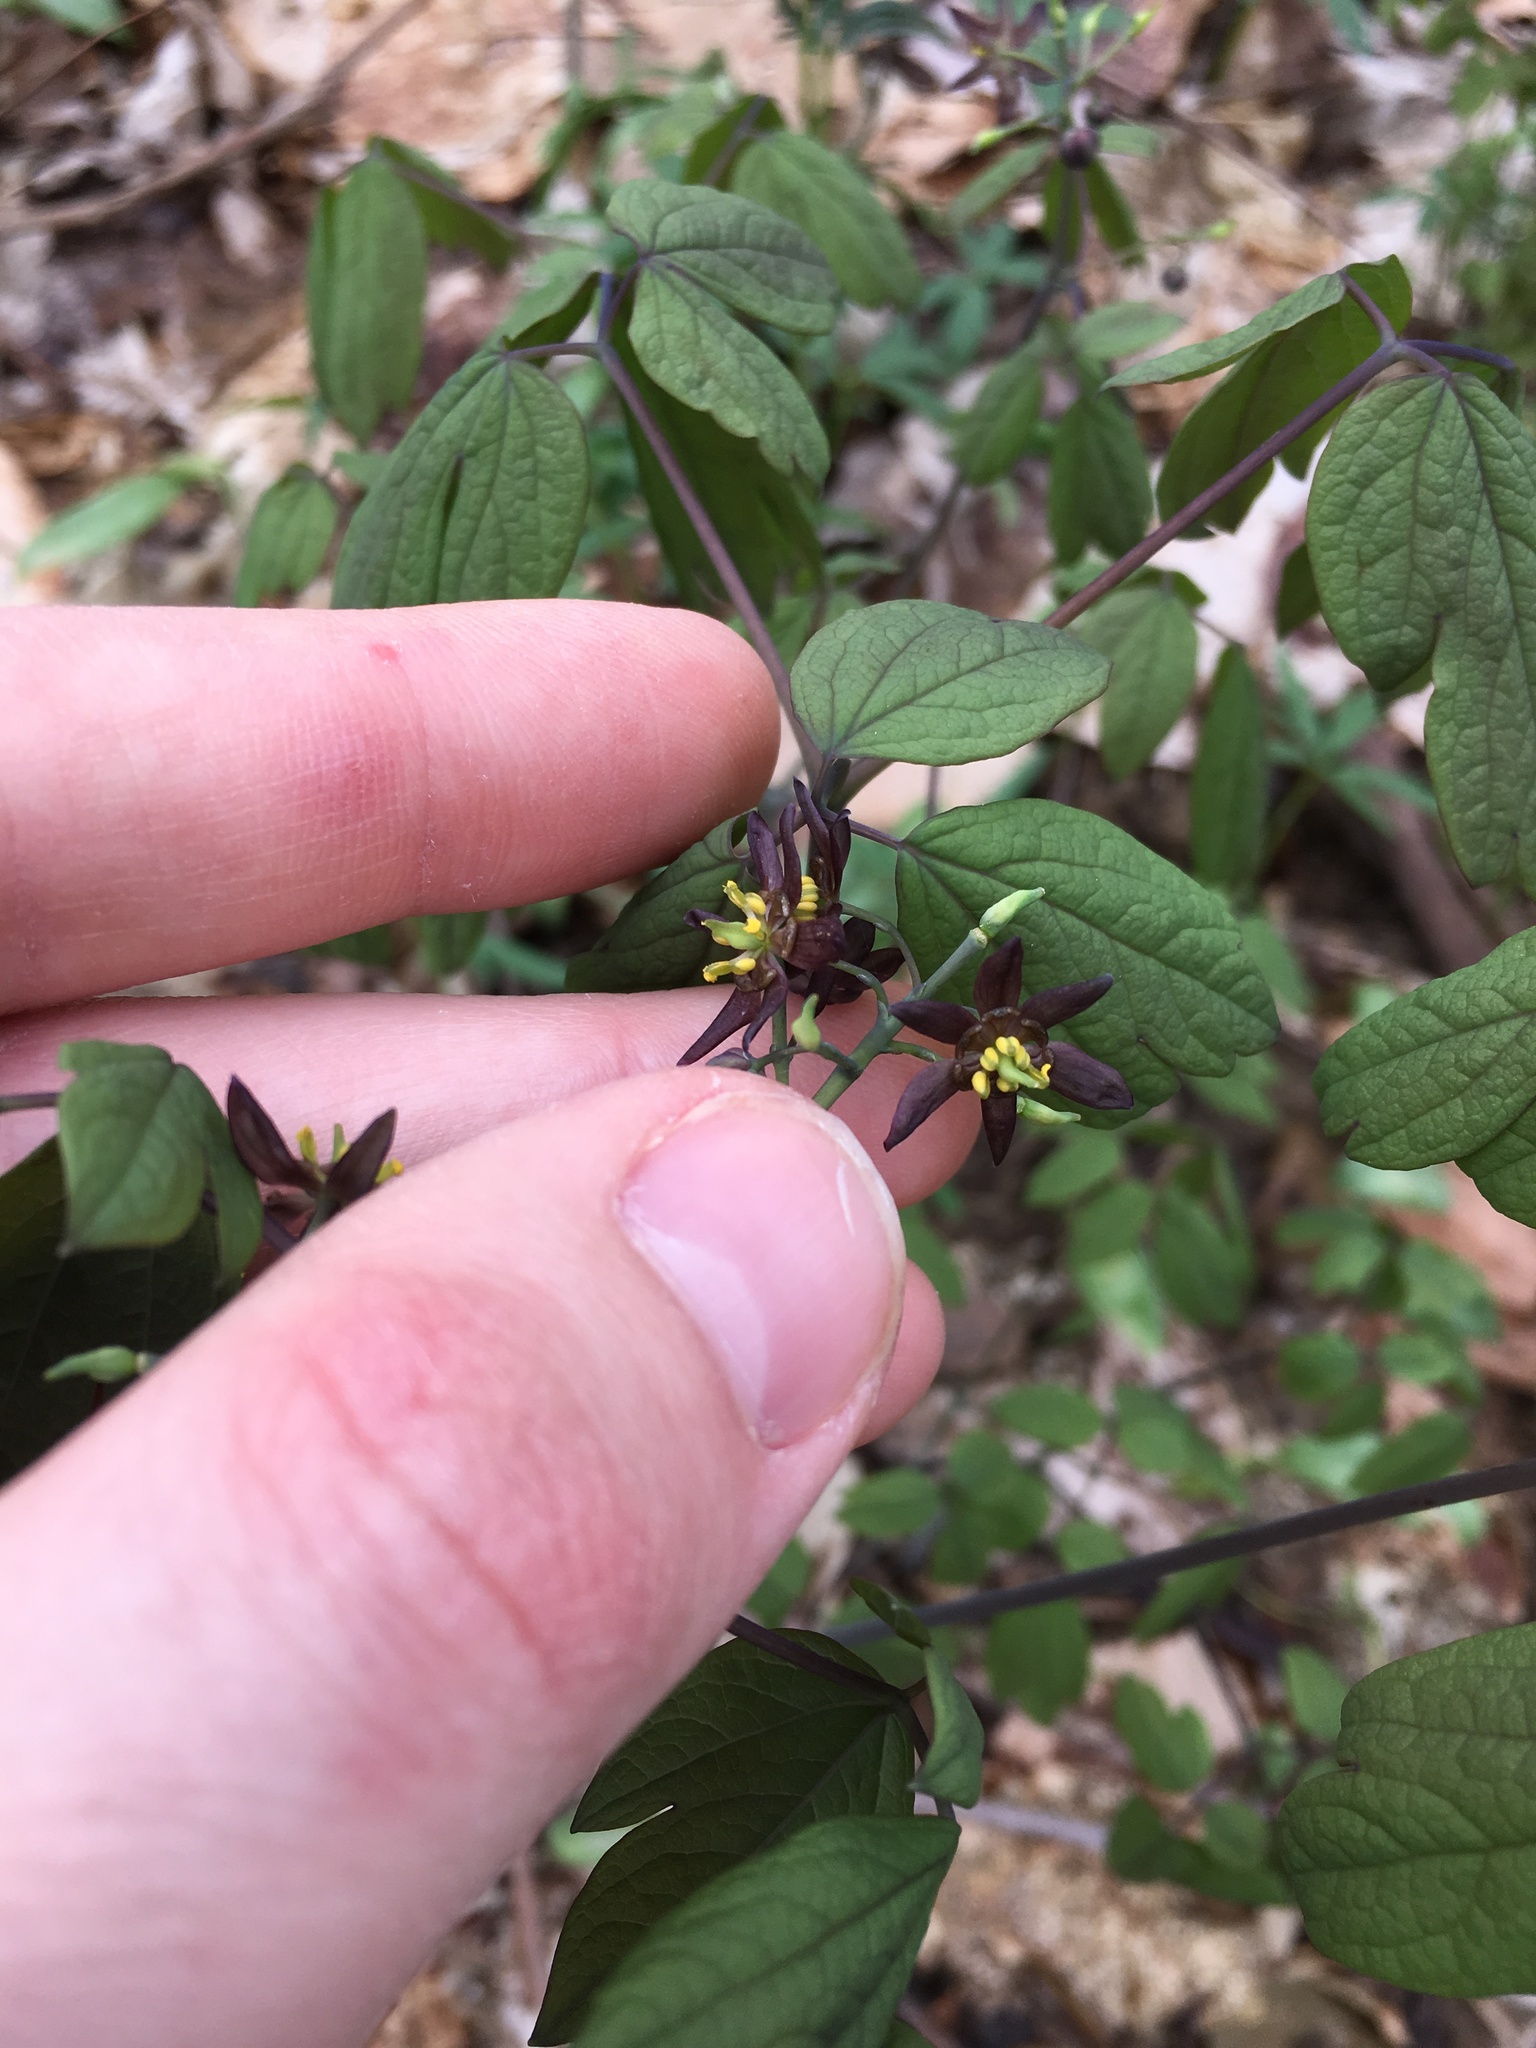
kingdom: Plantae
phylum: Tracheophyta
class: Magnoliopsida
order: Ranunculales
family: Berberidaceae
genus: Caulophyllum
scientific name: Caulophyllum giganteum
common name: Blue cohosh
